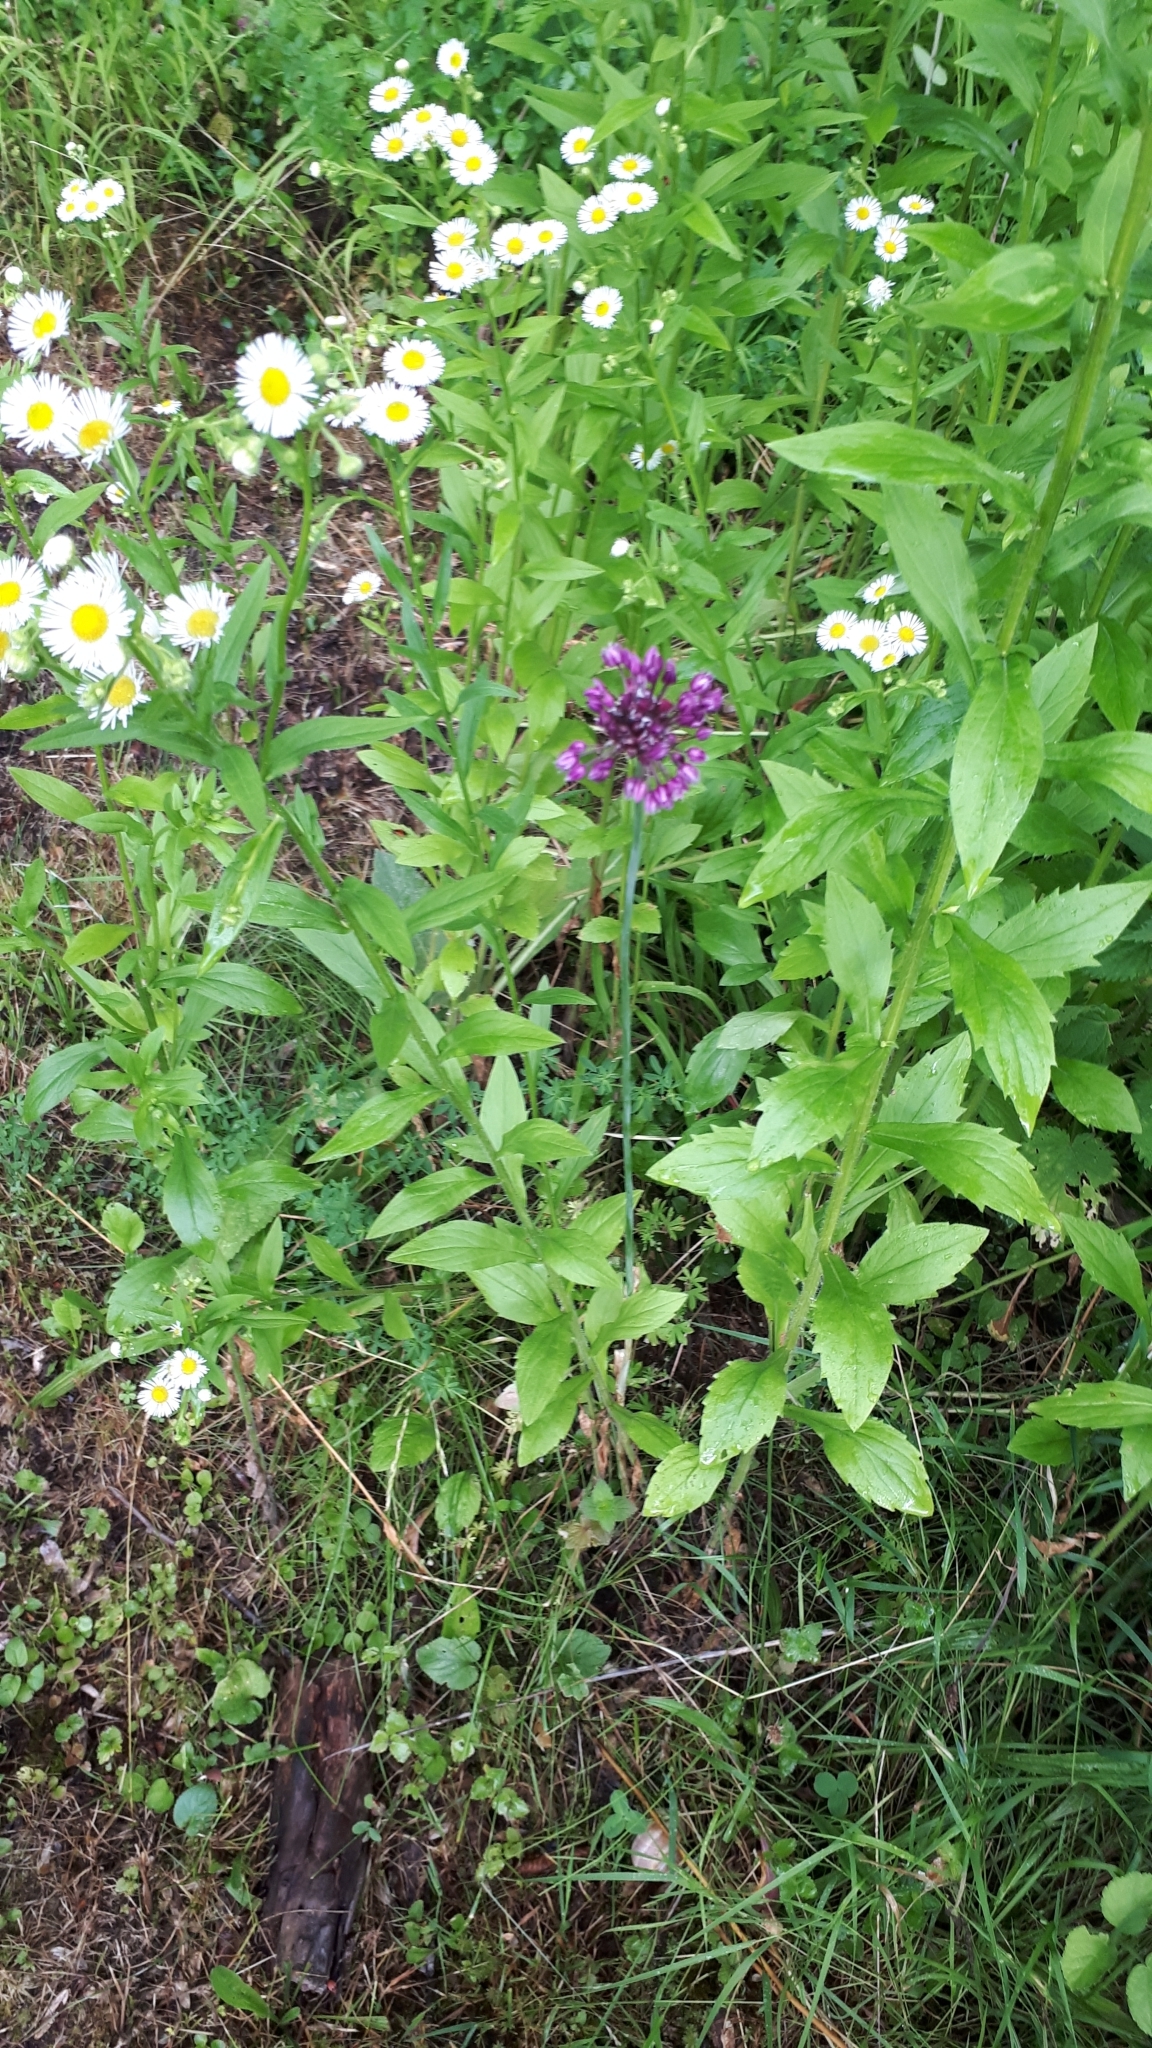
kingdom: Plantae
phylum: Tracheophyta
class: Liliopsida
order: Asparagales
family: Amaryllidaceae
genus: Allium
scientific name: Allium scorodoprasum
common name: Sand leek
